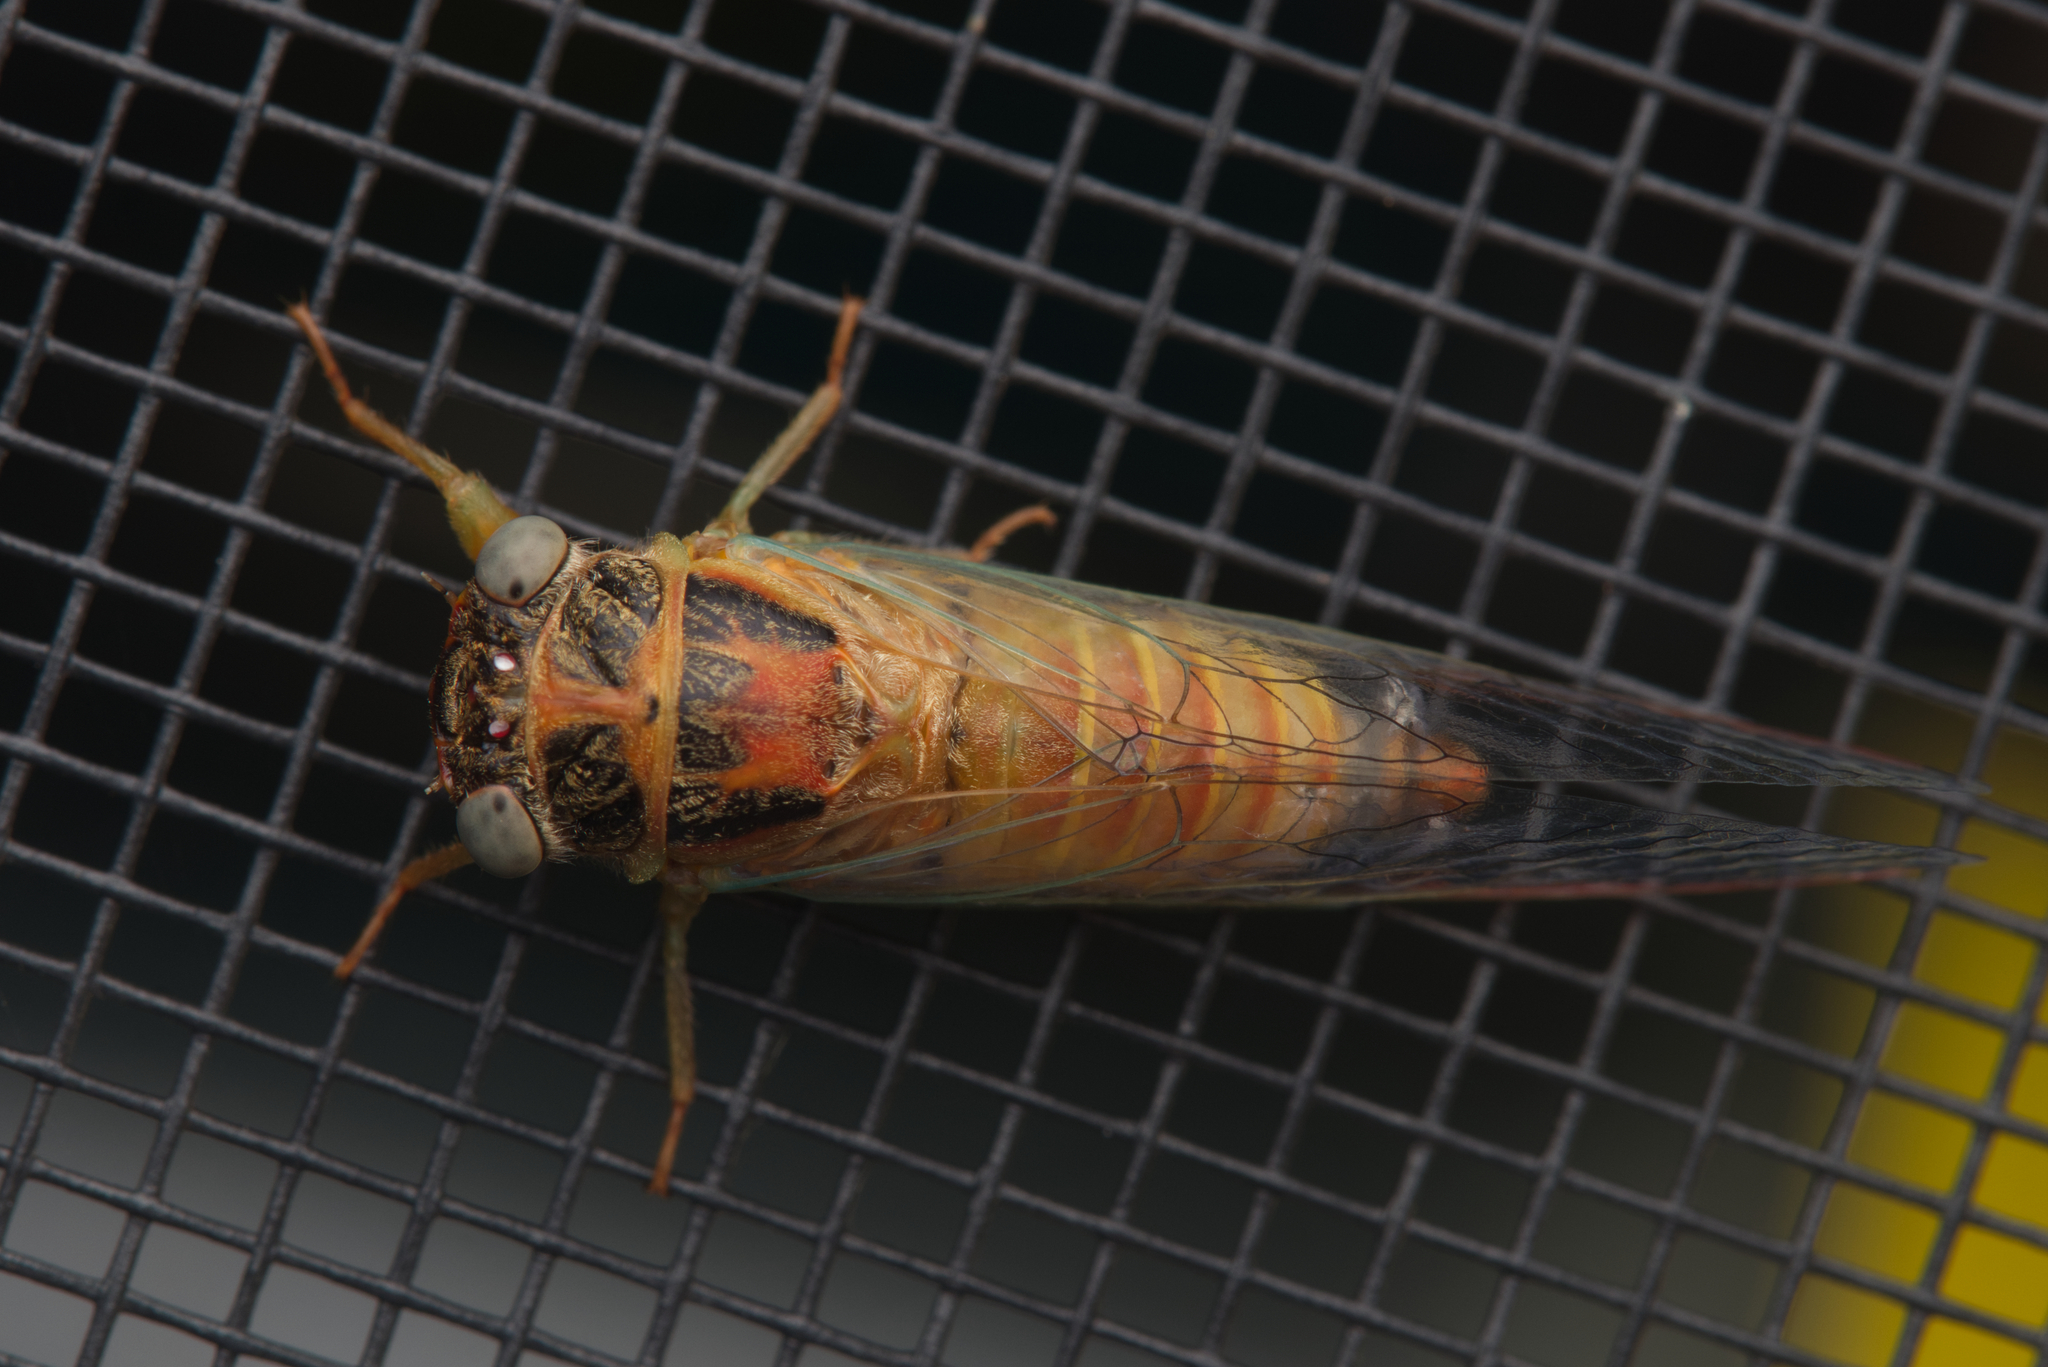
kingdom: Animalia
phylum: Arthropoda
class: Insecta
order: Hemiptera
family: Cicadidae
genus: Palapsalta
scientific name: Palapsalta eyrei
